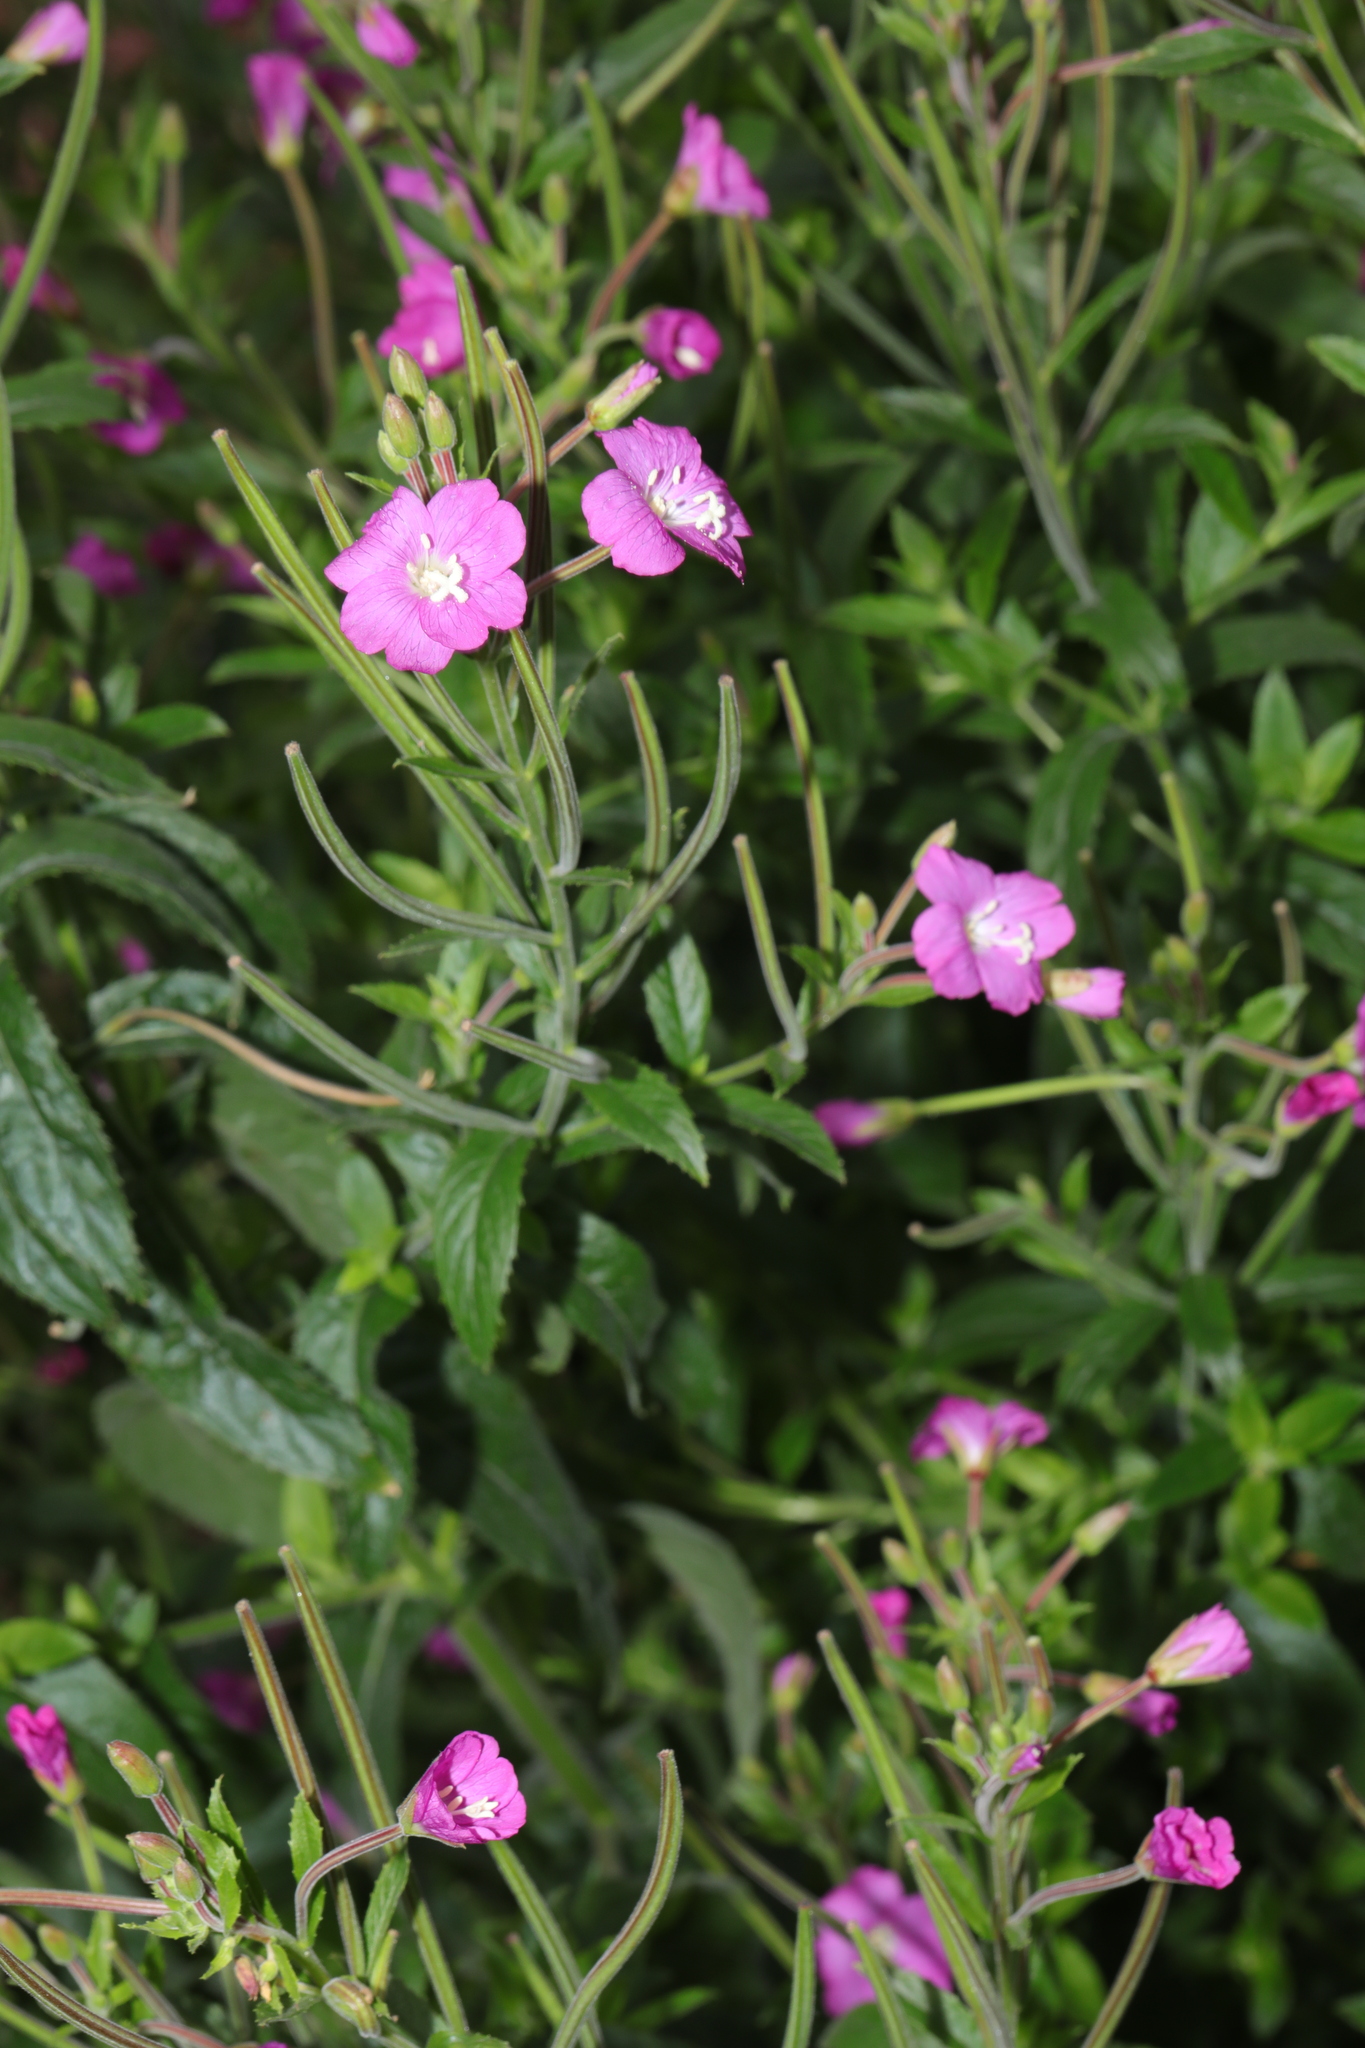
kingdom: Plantae
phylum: Tracheophyta
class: Magnoliopsida
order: Myrtales
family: Onagraceae
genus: Epilobium
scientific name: Epilobium hirsutum
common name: Great willowherb
